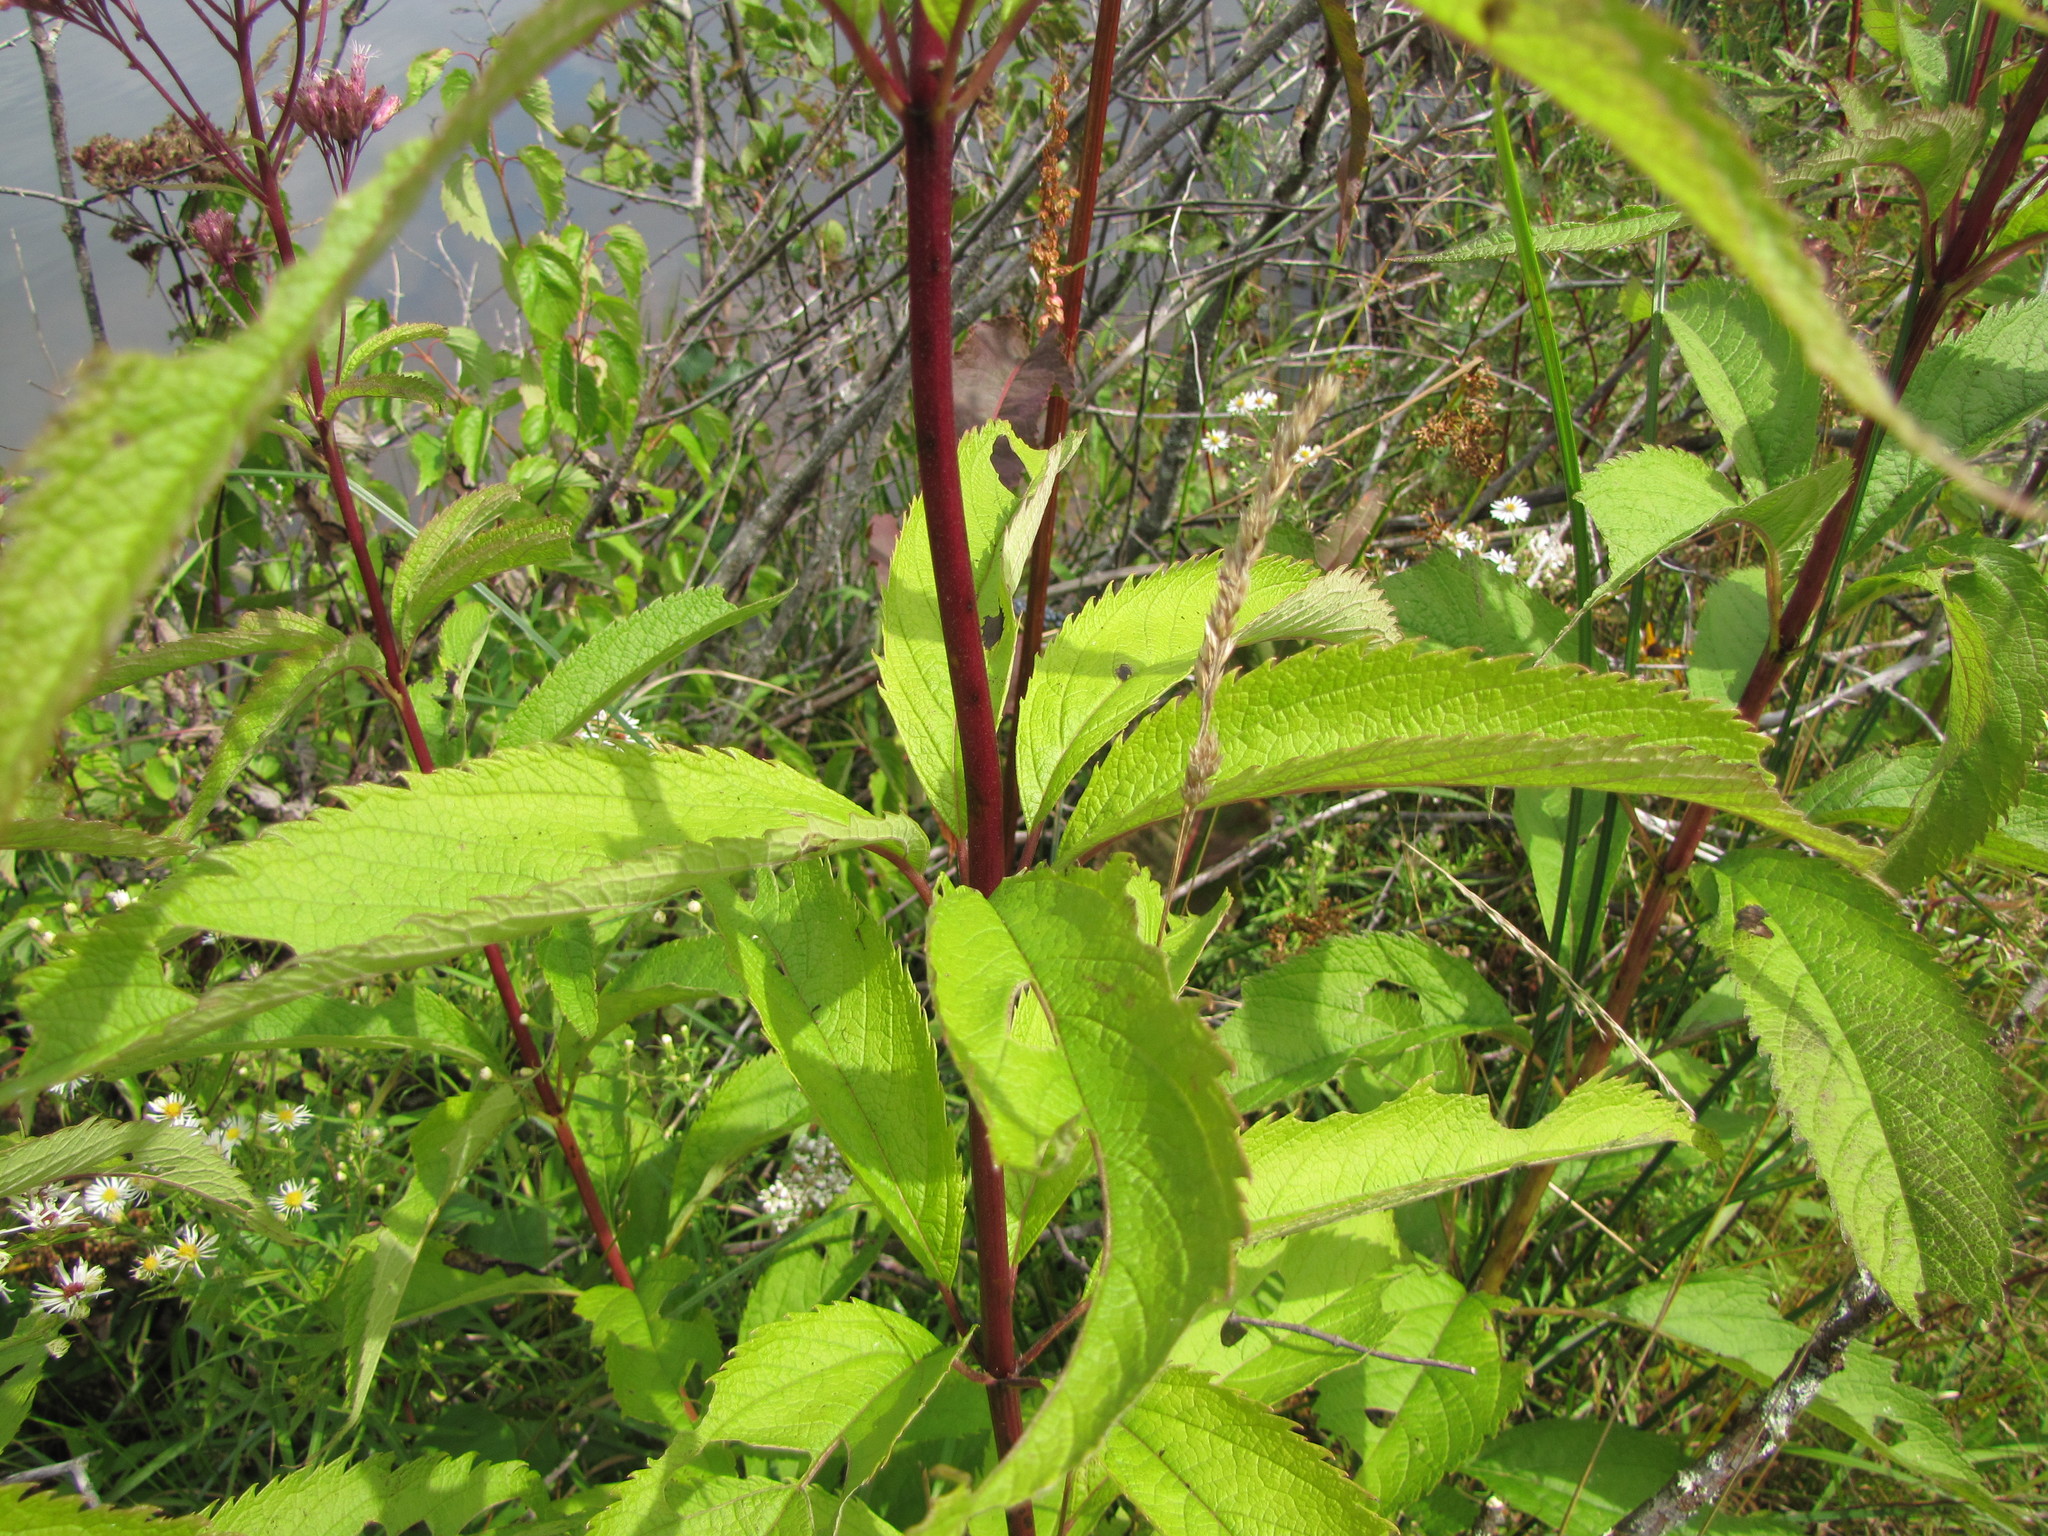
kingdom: Plantae
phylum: Tracheophyta
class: Magnoliopsida
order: Asterales
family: Asteraceae
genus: Eutrochium
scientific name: Eutrochium maculatum
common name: Spotted joe pye weed
